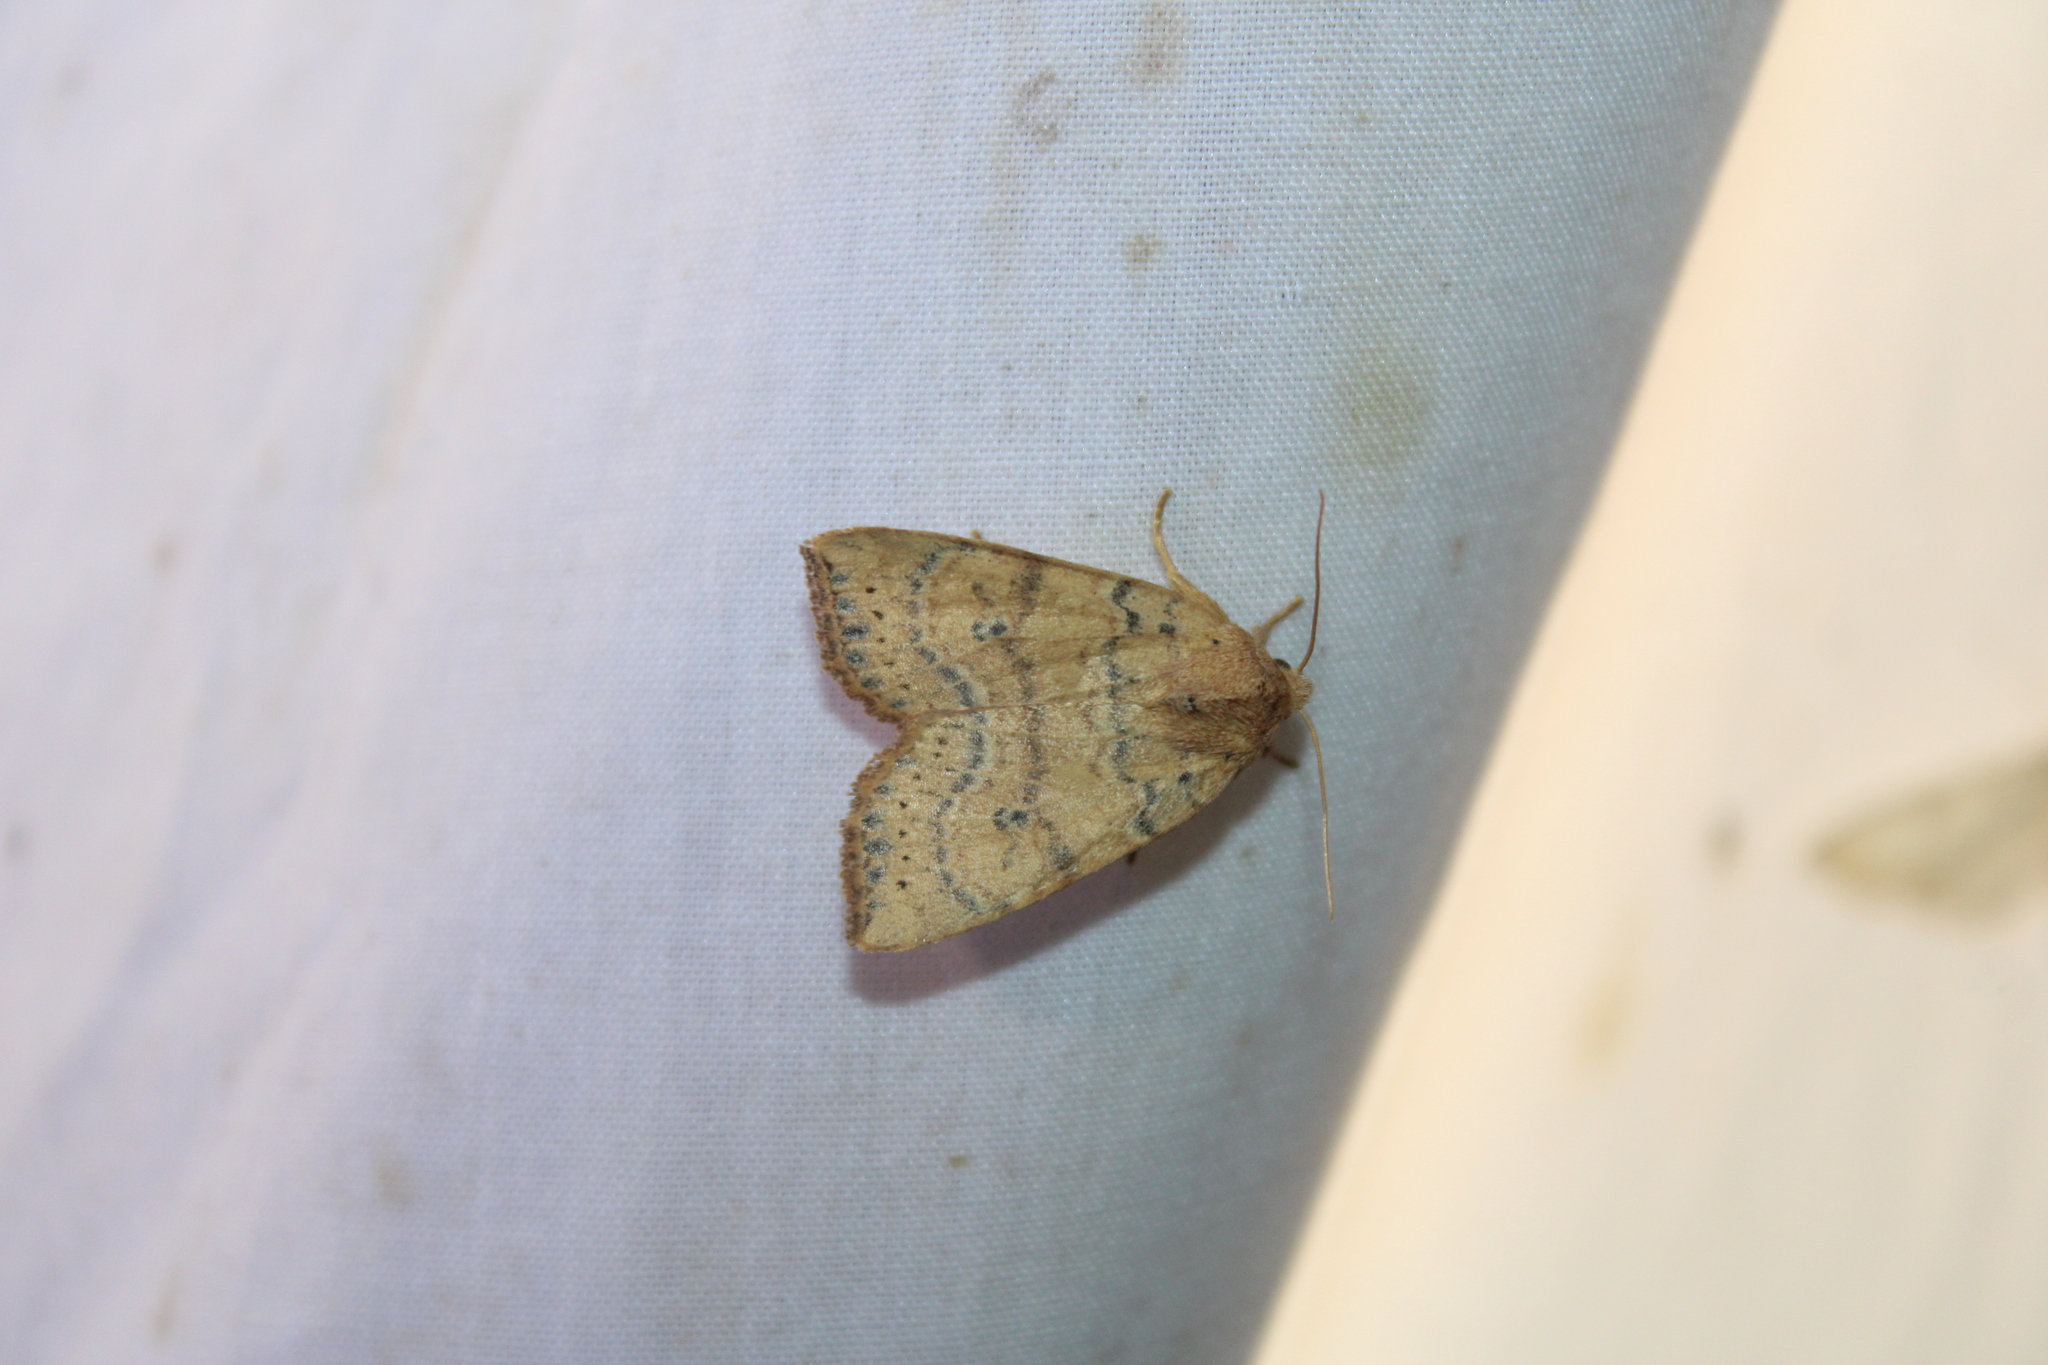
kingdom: Animalia
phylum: Arthropoda
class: Insecta
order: Lepidoptera
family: Noctuidae
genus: Anathix
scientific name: Anathix ralla
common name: Dotted sallow
